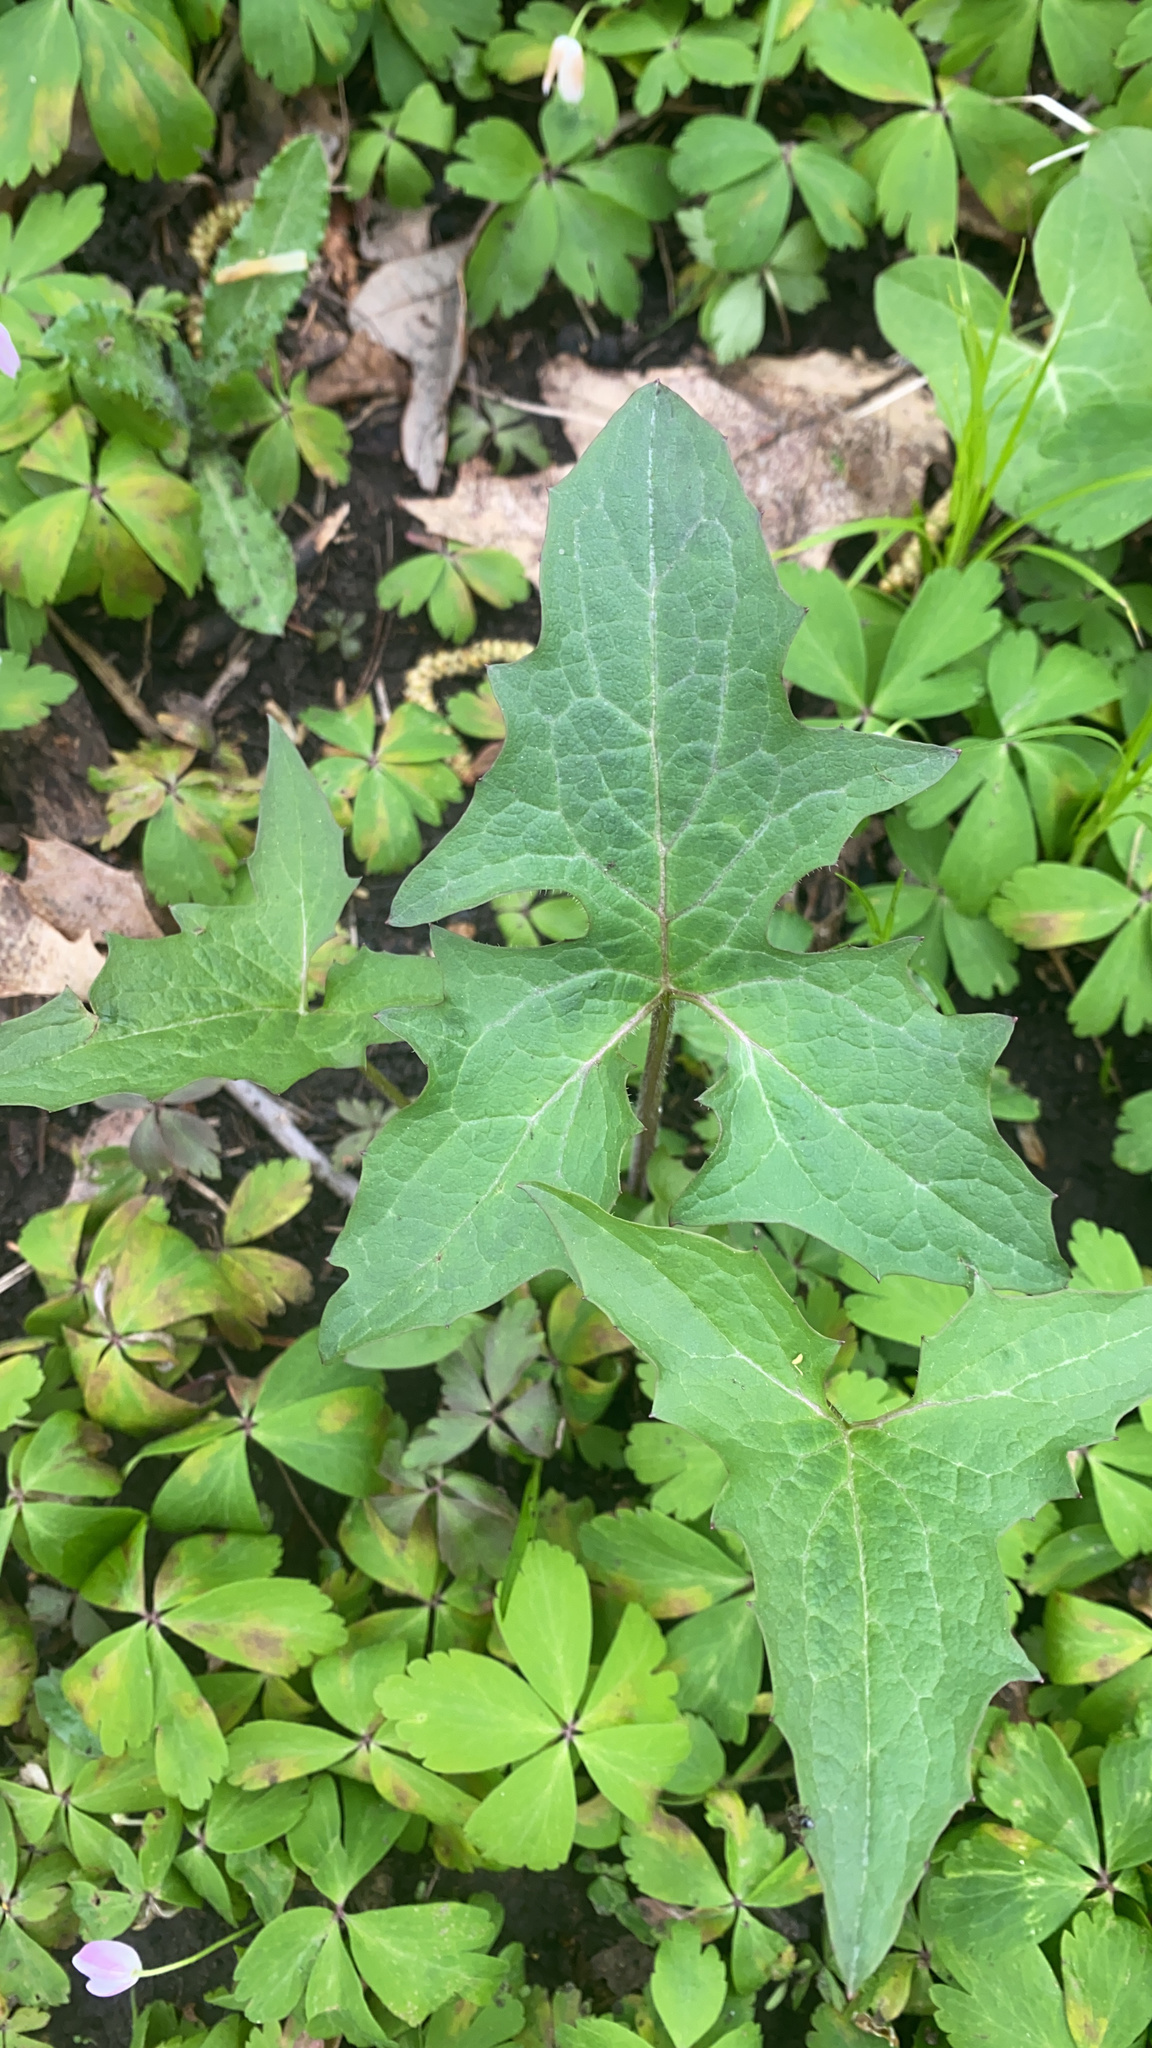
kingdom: Plantae
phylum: Tracheophyta
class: Magnoliopsida
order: Asterales
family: Asteraceae
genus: Nabalus
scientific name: Nabalus albus
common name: White rattlesnakeroot
